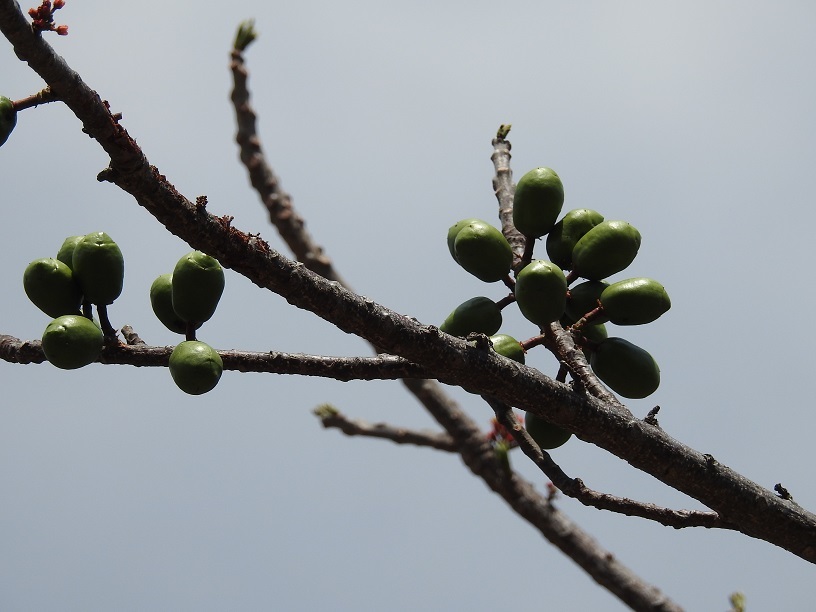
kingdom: Plantae
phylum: Tracheophyta
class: Magnoliopsida
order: Sapindales
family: Anacardiaceae
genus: Spondias
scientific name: Spondias purpurea
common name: Purple mombin
